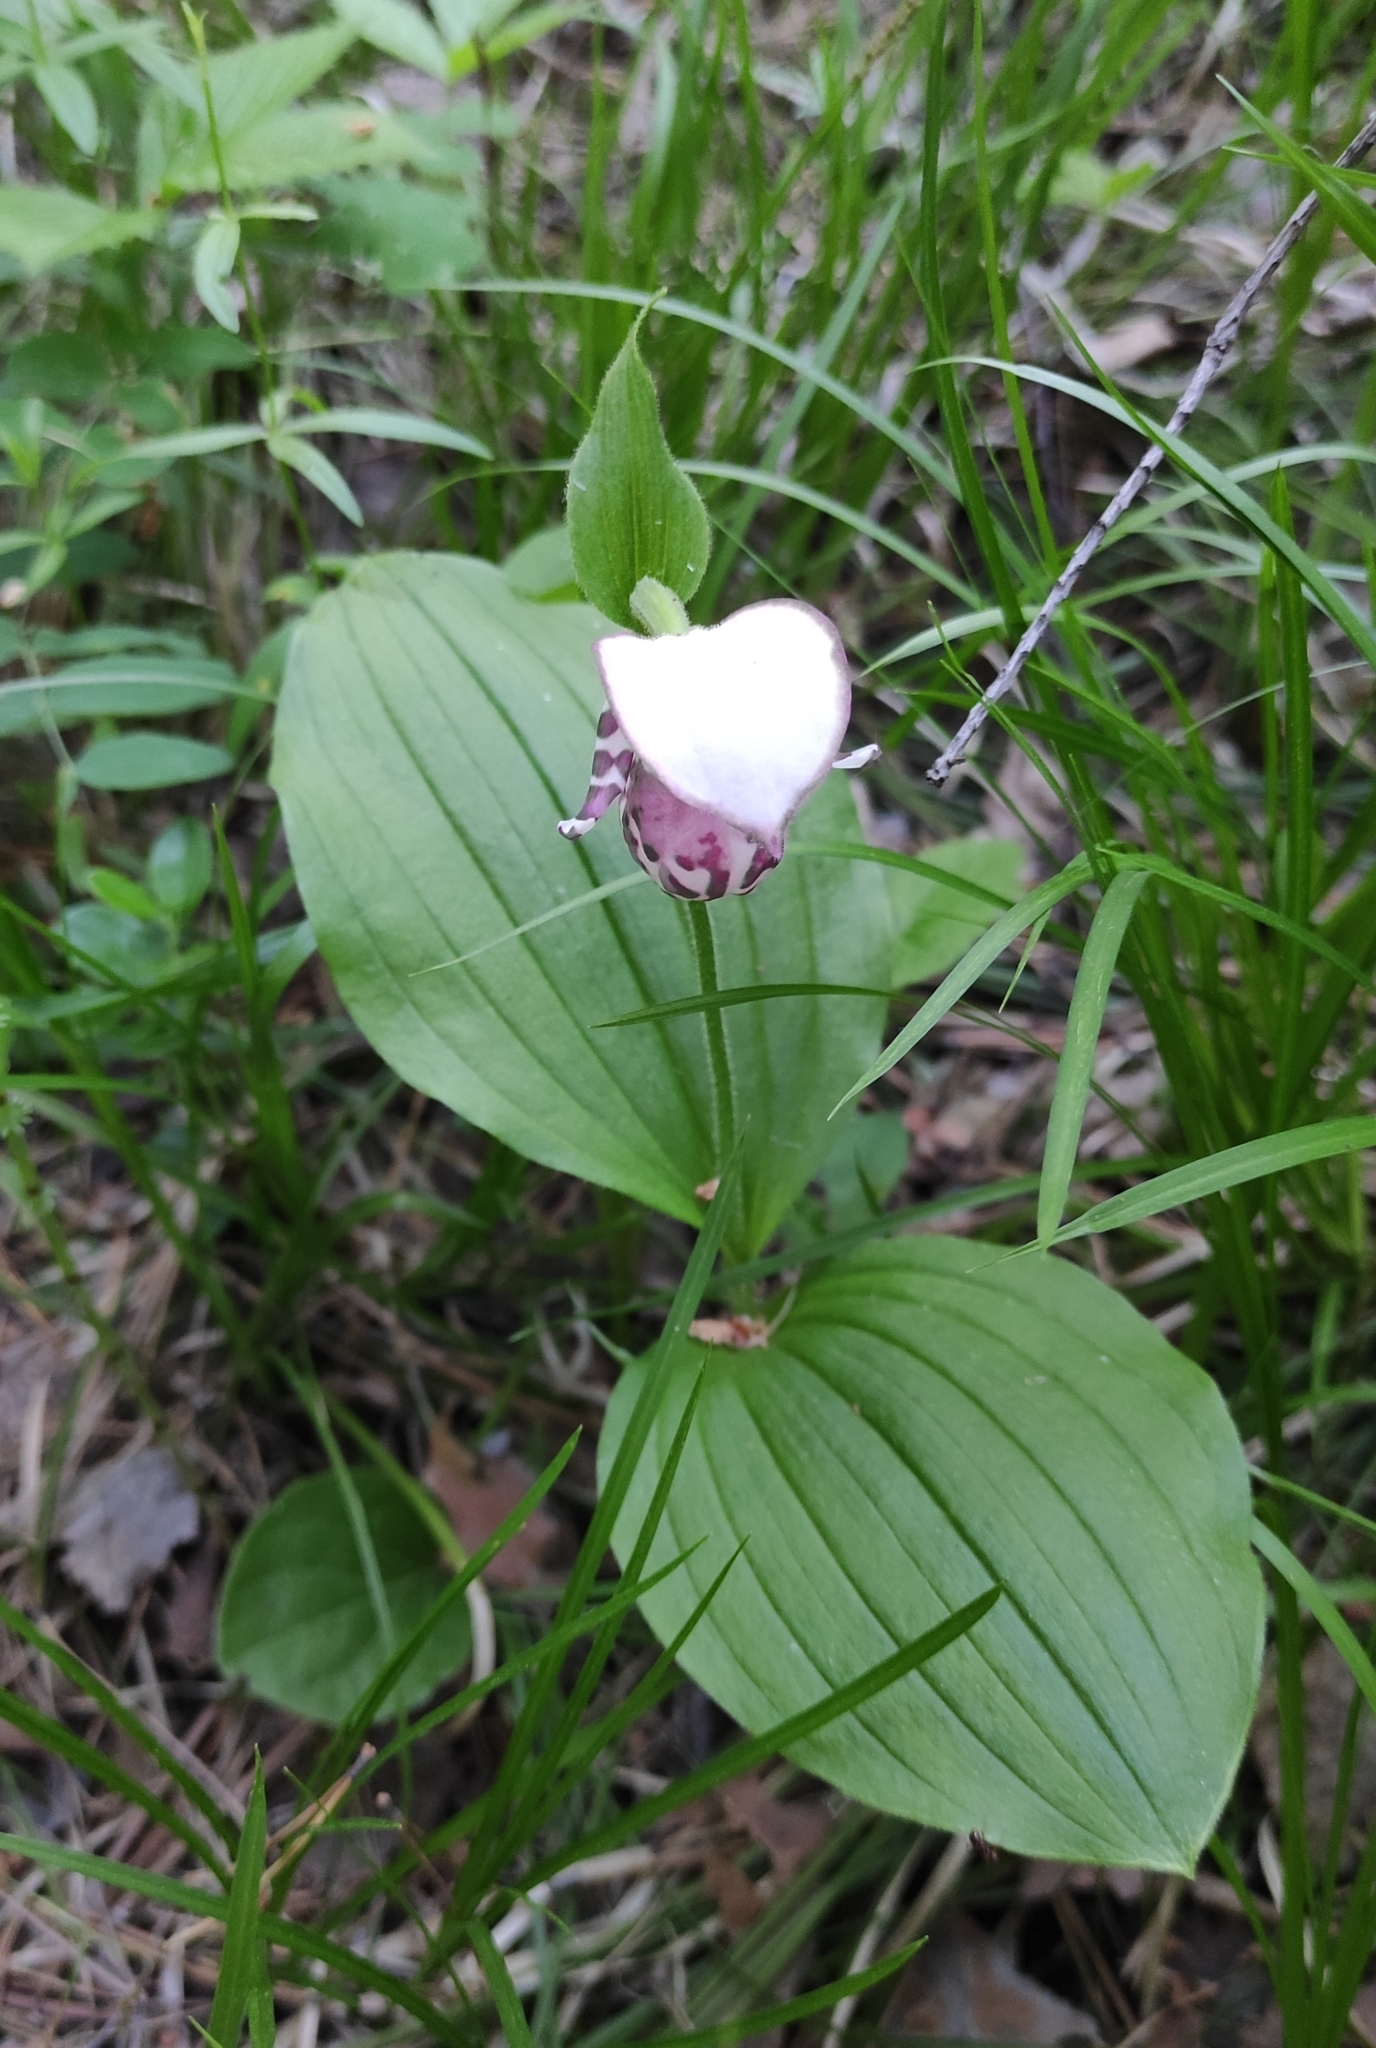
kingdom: Plantae
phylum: Tracheophyta
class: Liliopsida
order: Asparagales
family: Orchidaceae
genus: Cypripedium
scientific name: Cypripedium guttatum
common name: Pink lady slipper
